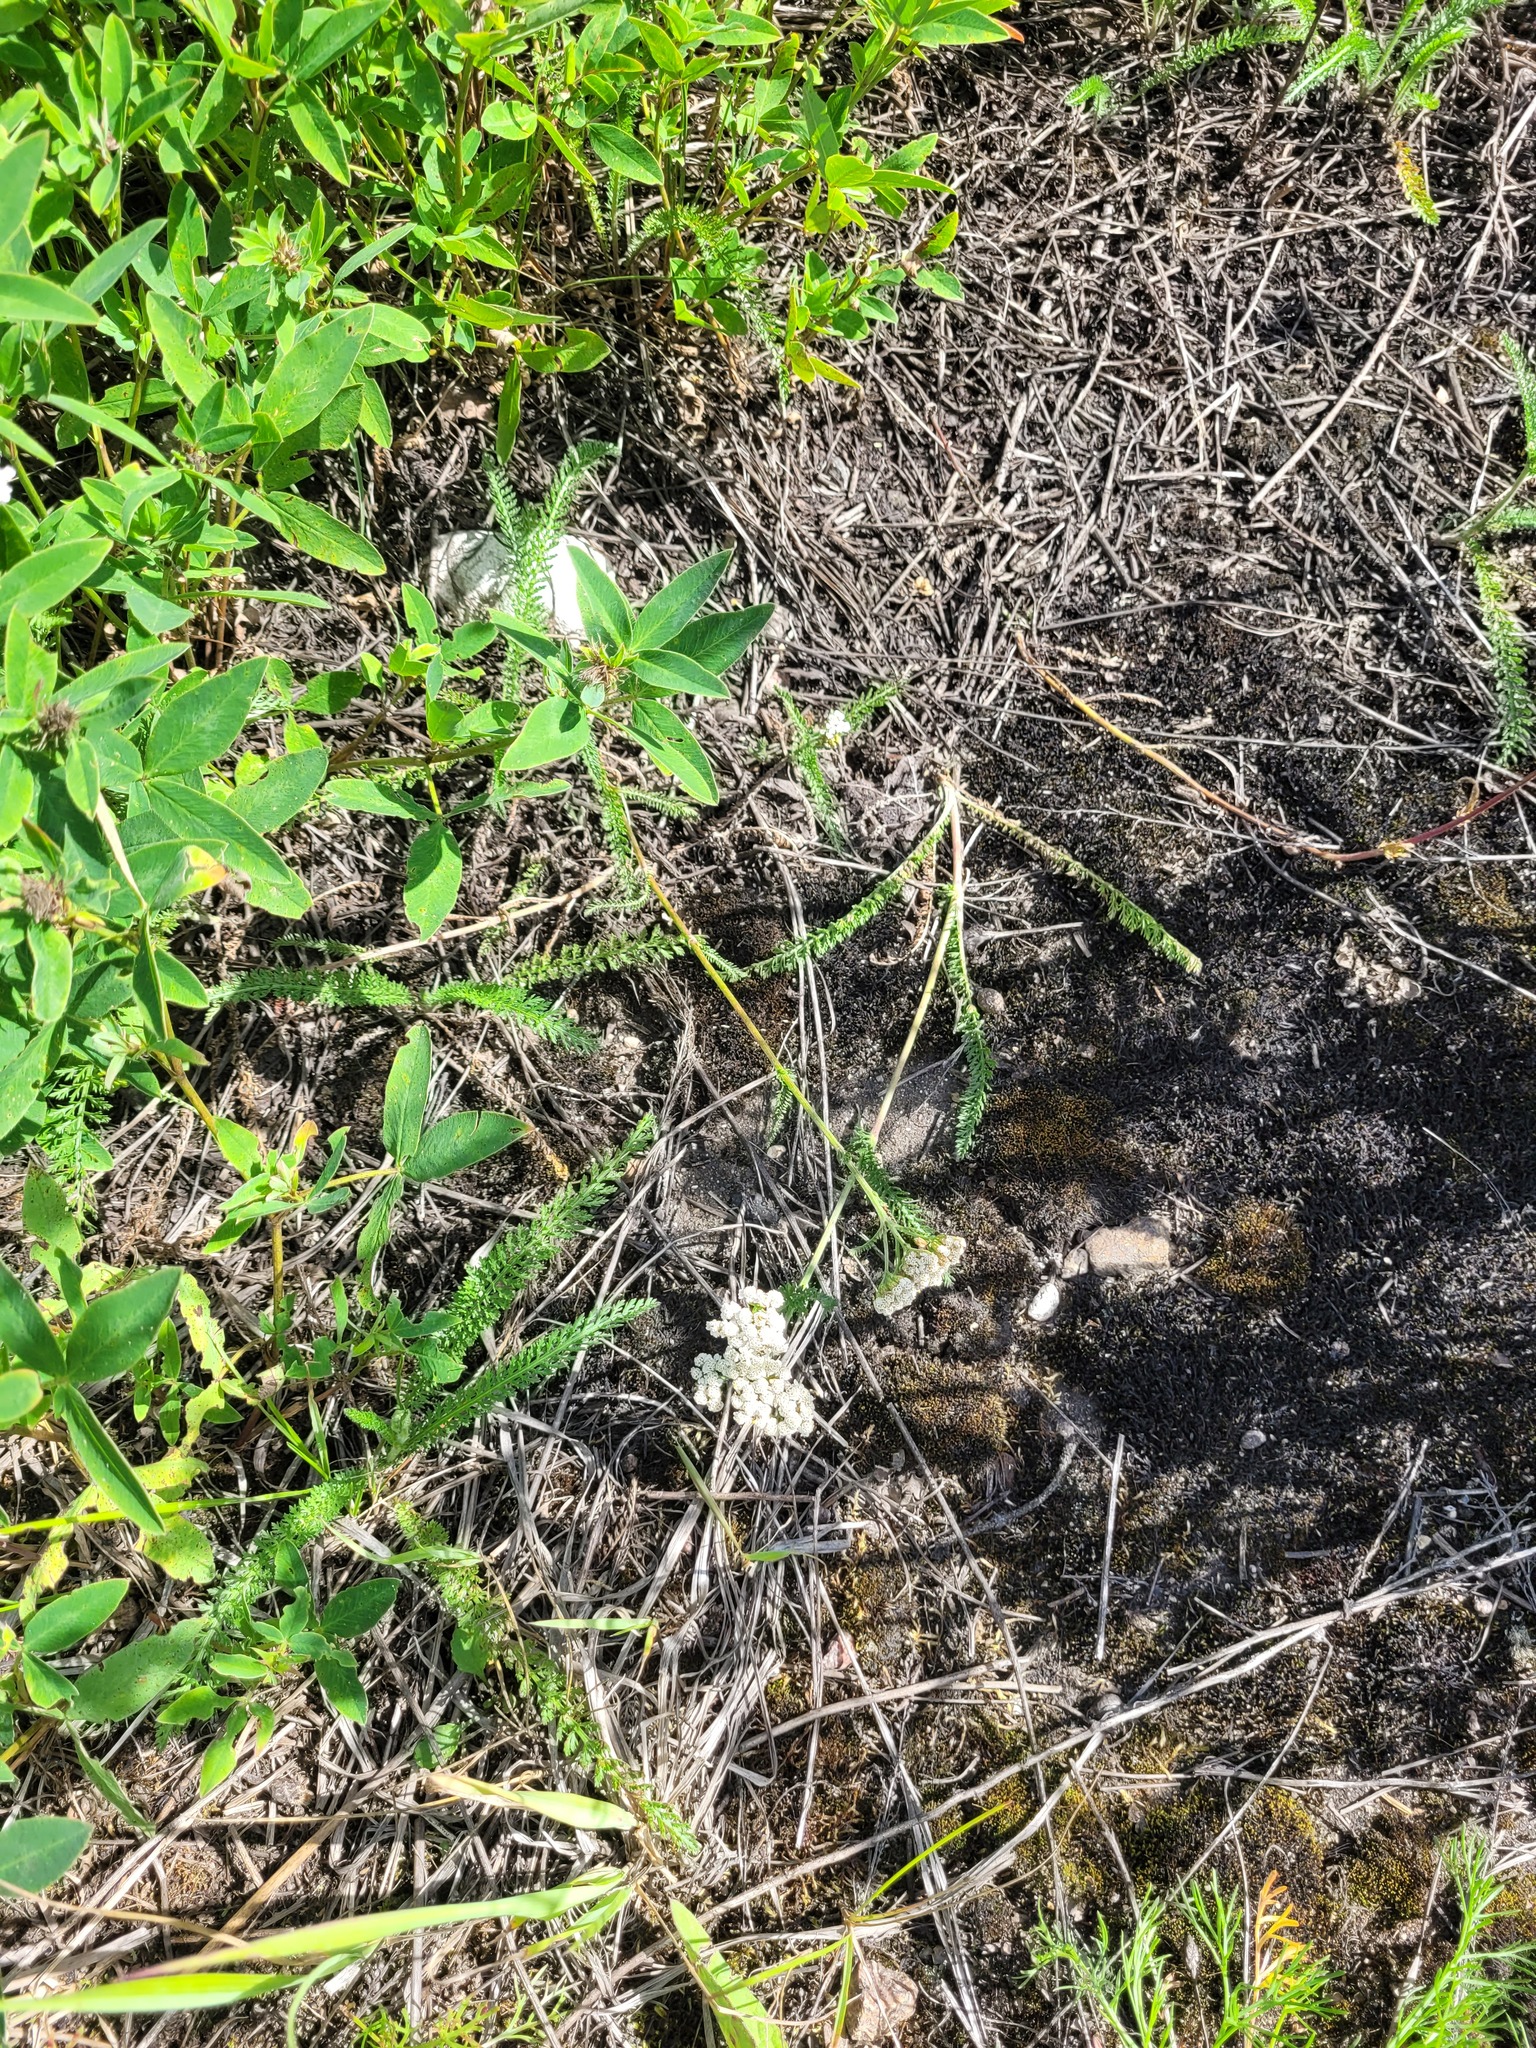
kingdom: Plantae
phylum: Tracheophyta
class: Magnoliopsida
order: Asterales
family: Asteraceae
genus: Achillea
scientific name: Achillea millefolium
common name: Yarrow
